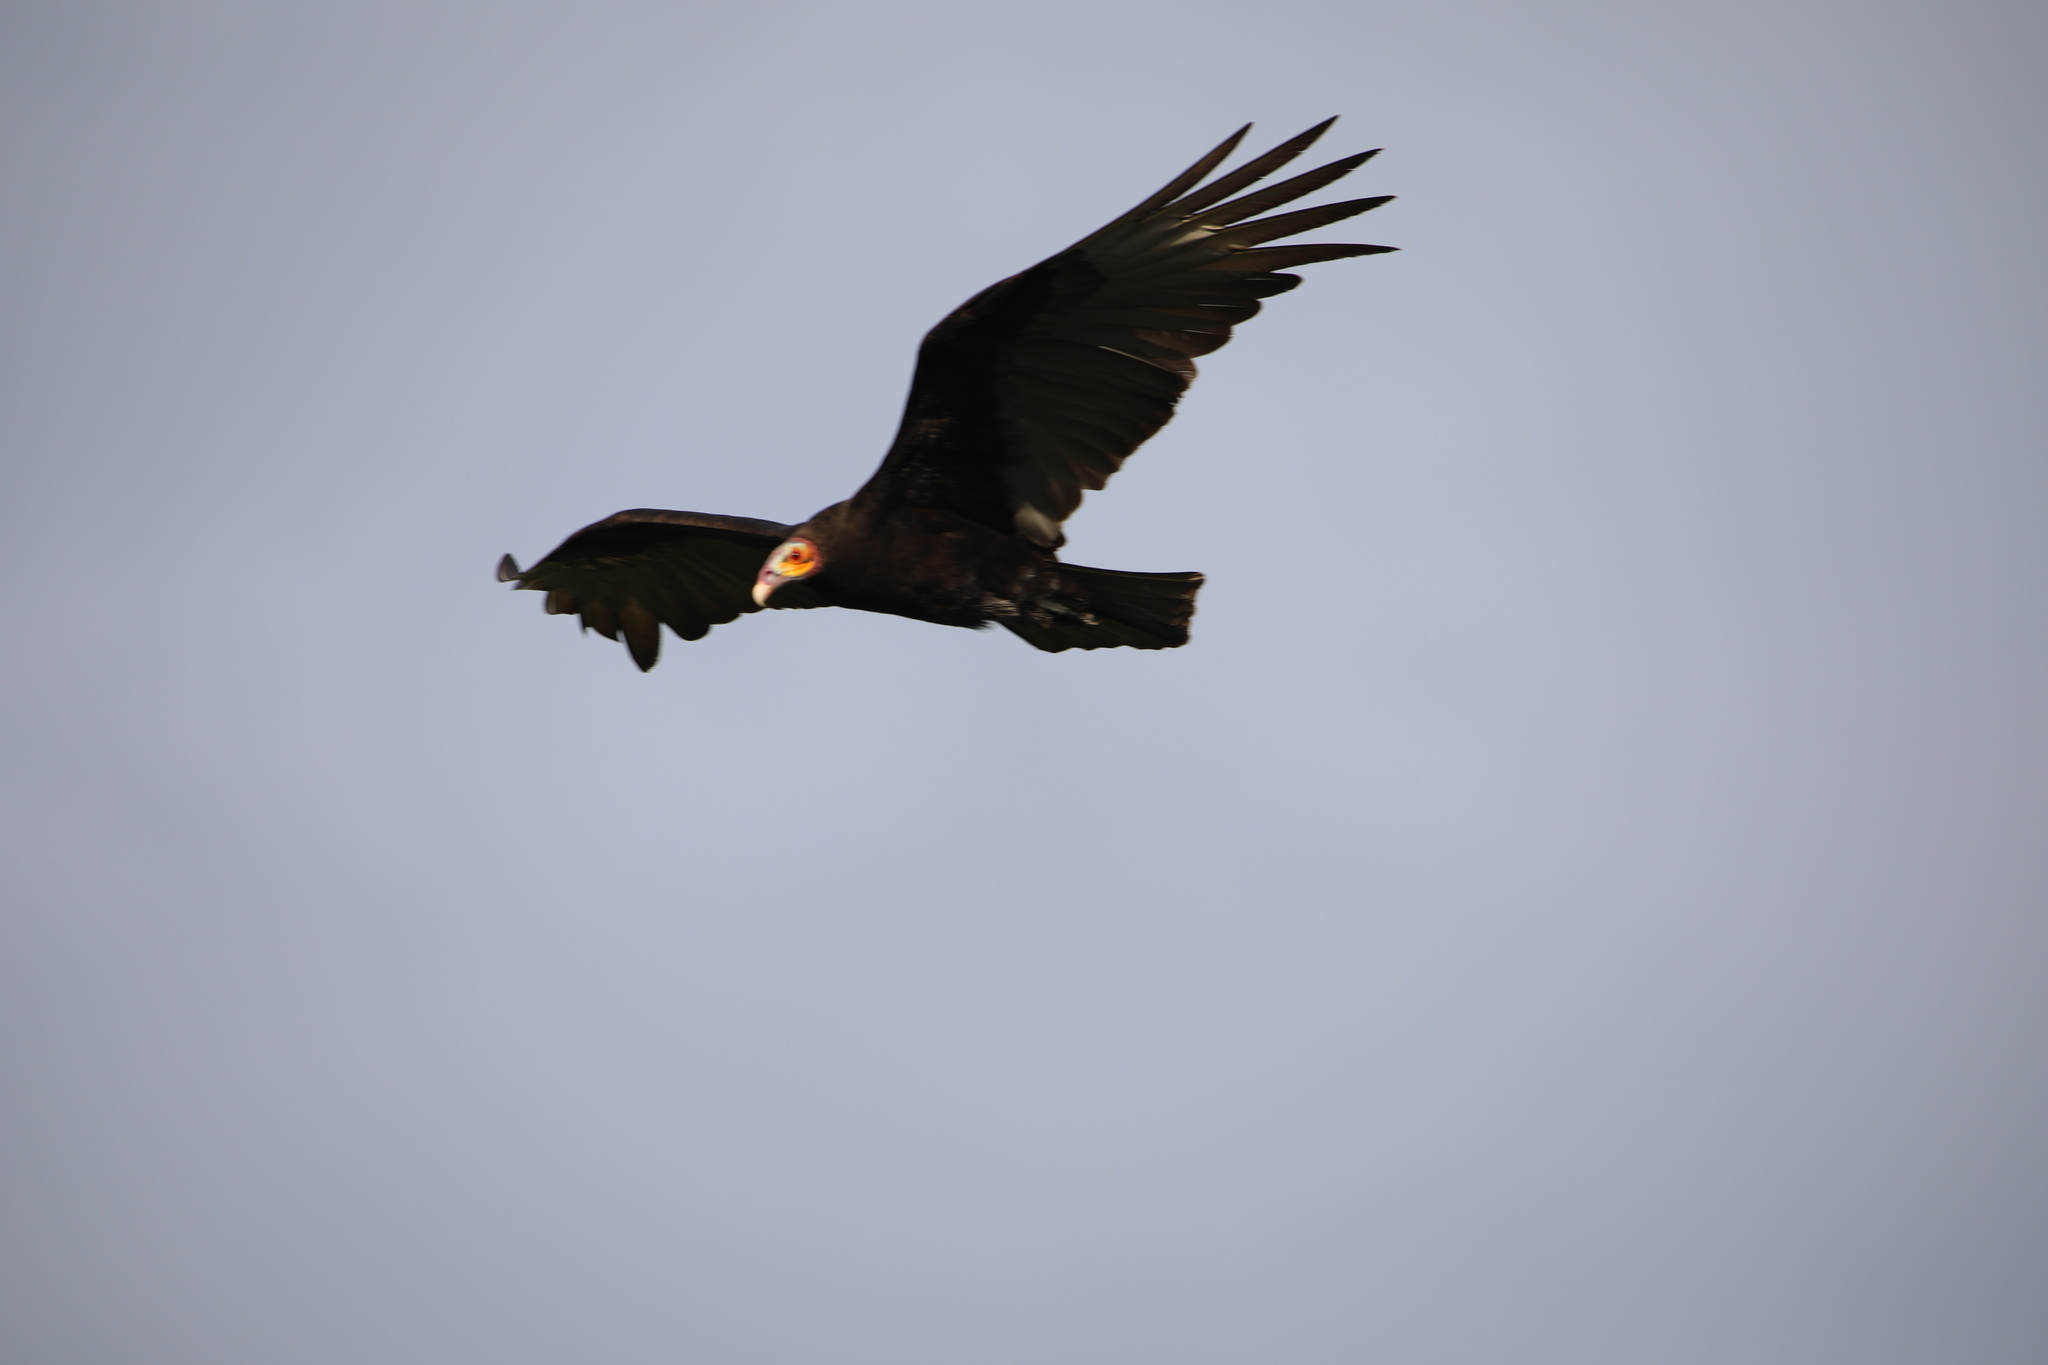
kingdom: Animalia
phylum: Chordata
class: Aves
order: Accipitriformes
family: Cathartidae
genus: Cathartes
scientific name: Cathartes burrovianus
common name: Lesser yellow-headed vulture
